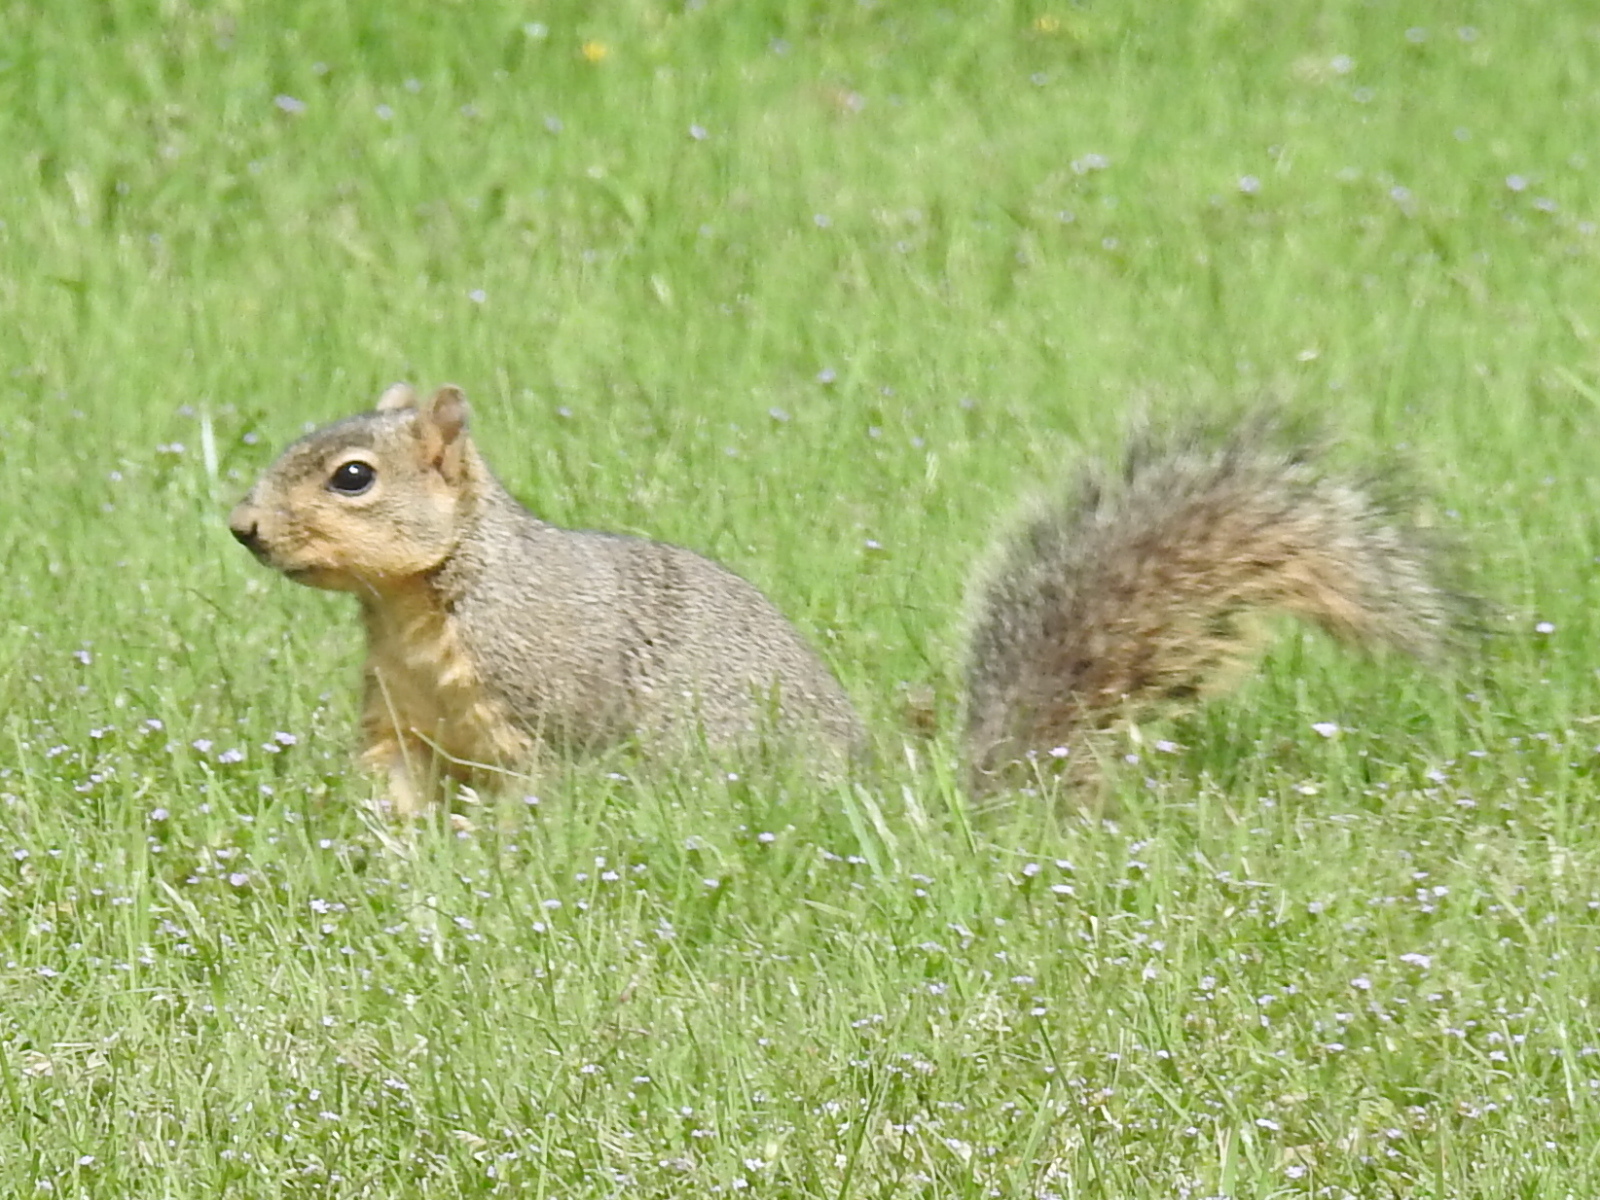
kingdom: Animalia
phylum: Chordata
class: Mammalia
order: Rodentia
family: Sciuridae
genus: Sciurus
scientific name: Sciurus niger
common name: Fox squirrel
